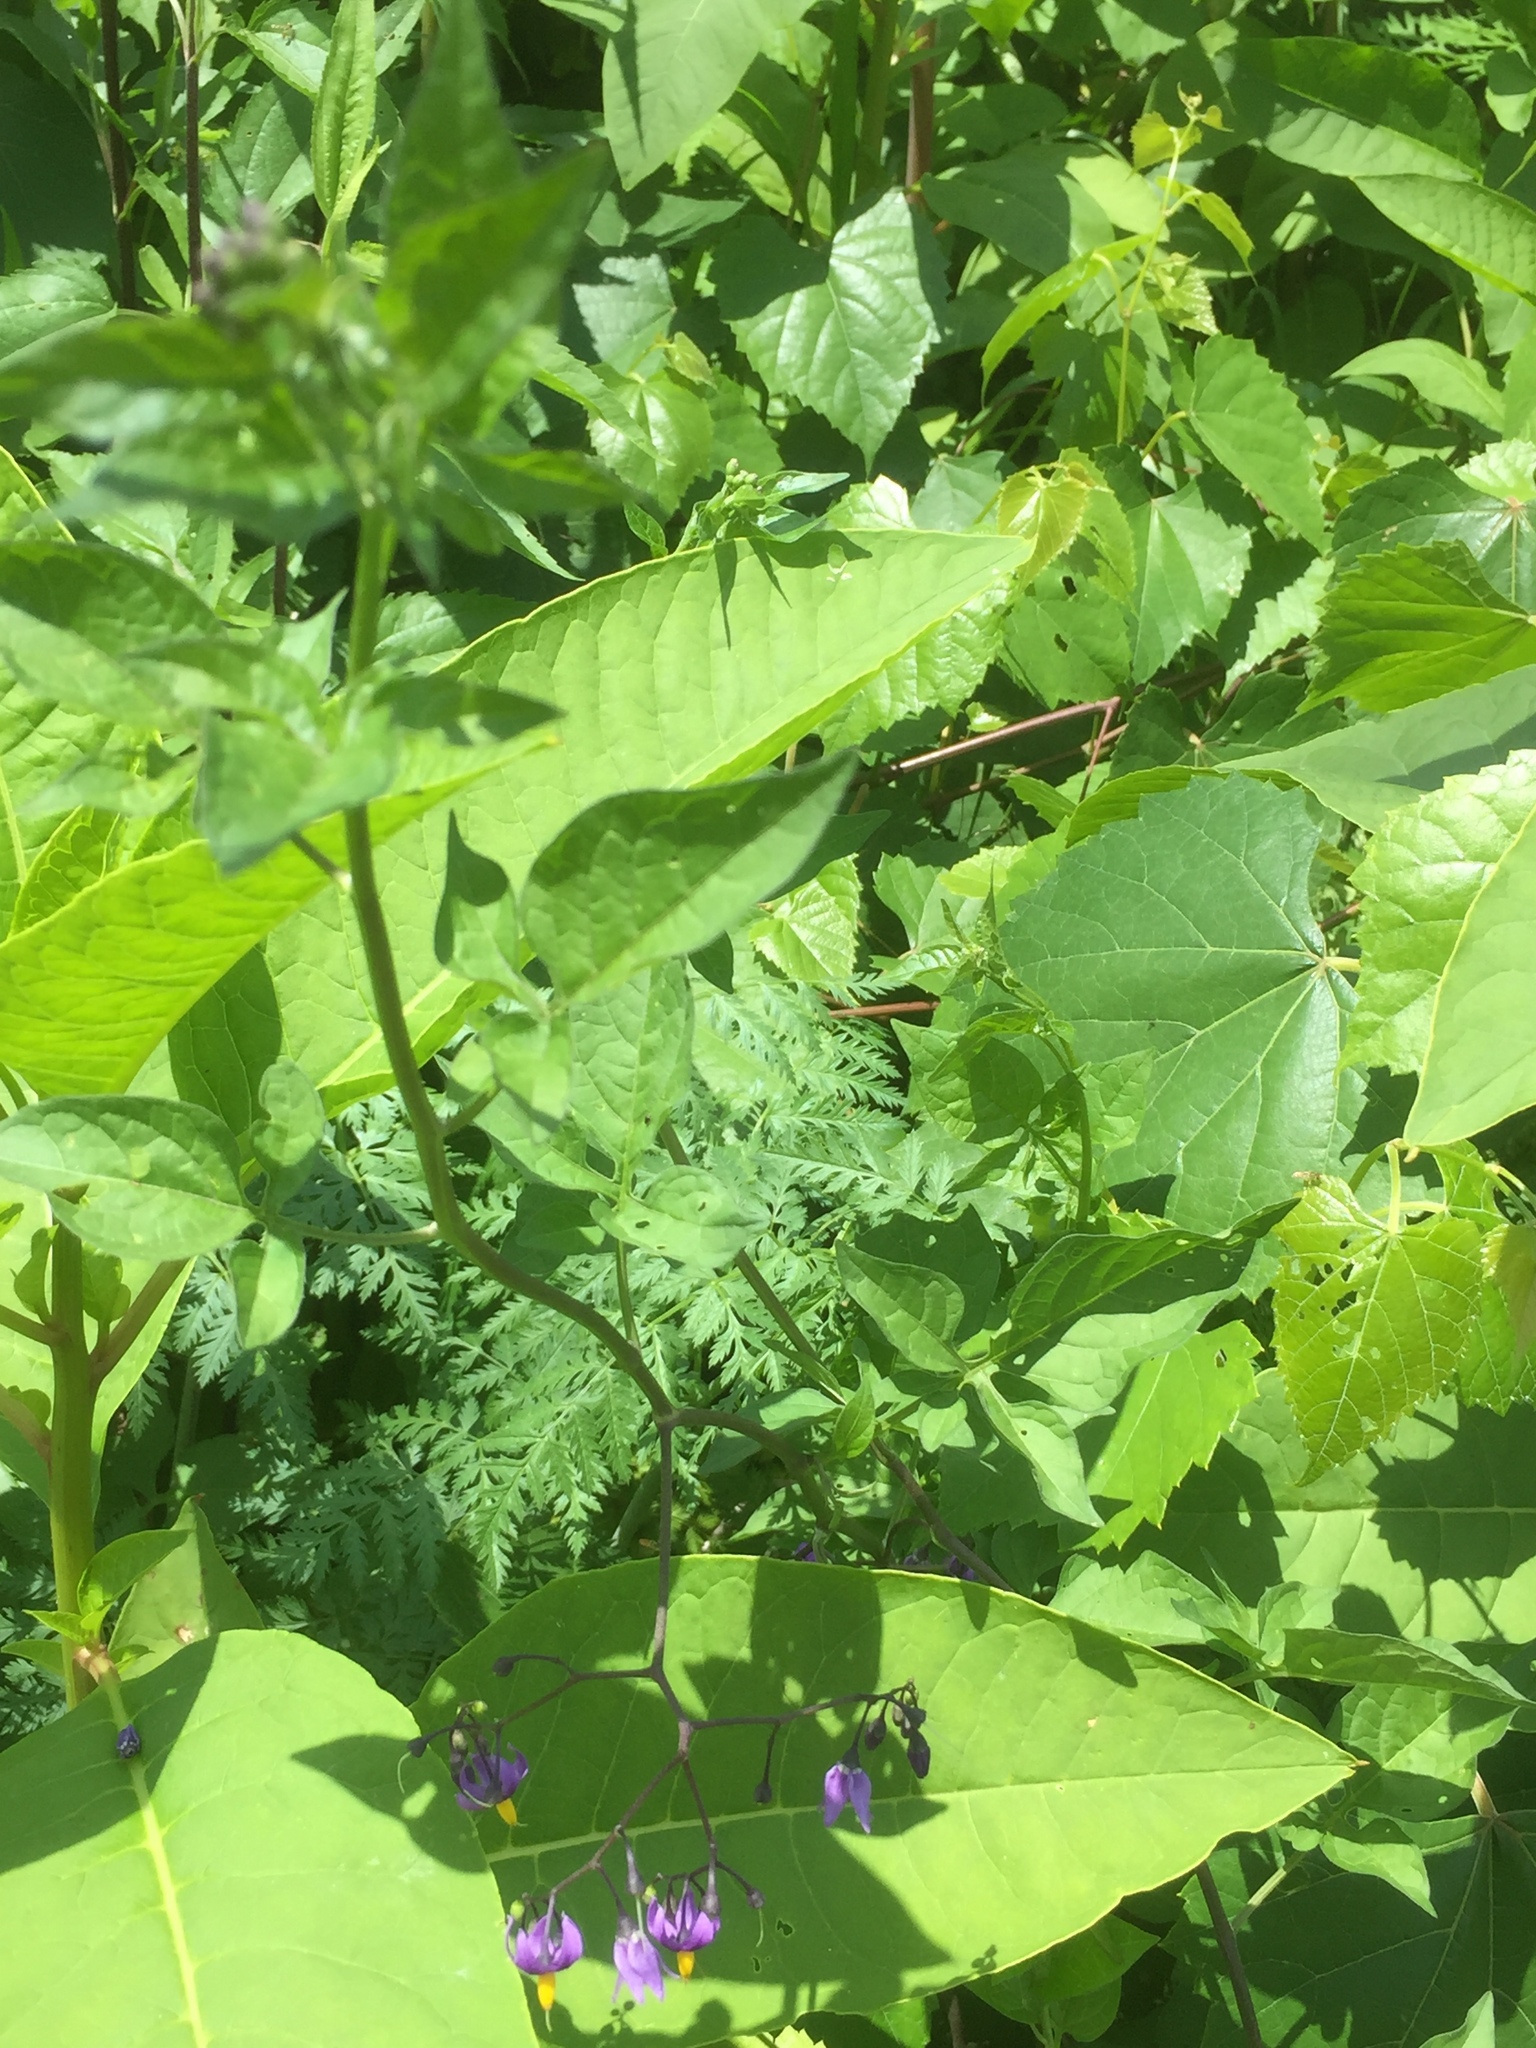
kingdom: Plantae
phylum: Tracheophyta
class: Magnoliopsida
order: Solanales
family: Solanaceae
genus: Solanum
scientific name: Solanum dulcamara
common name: Climbing nightshade
